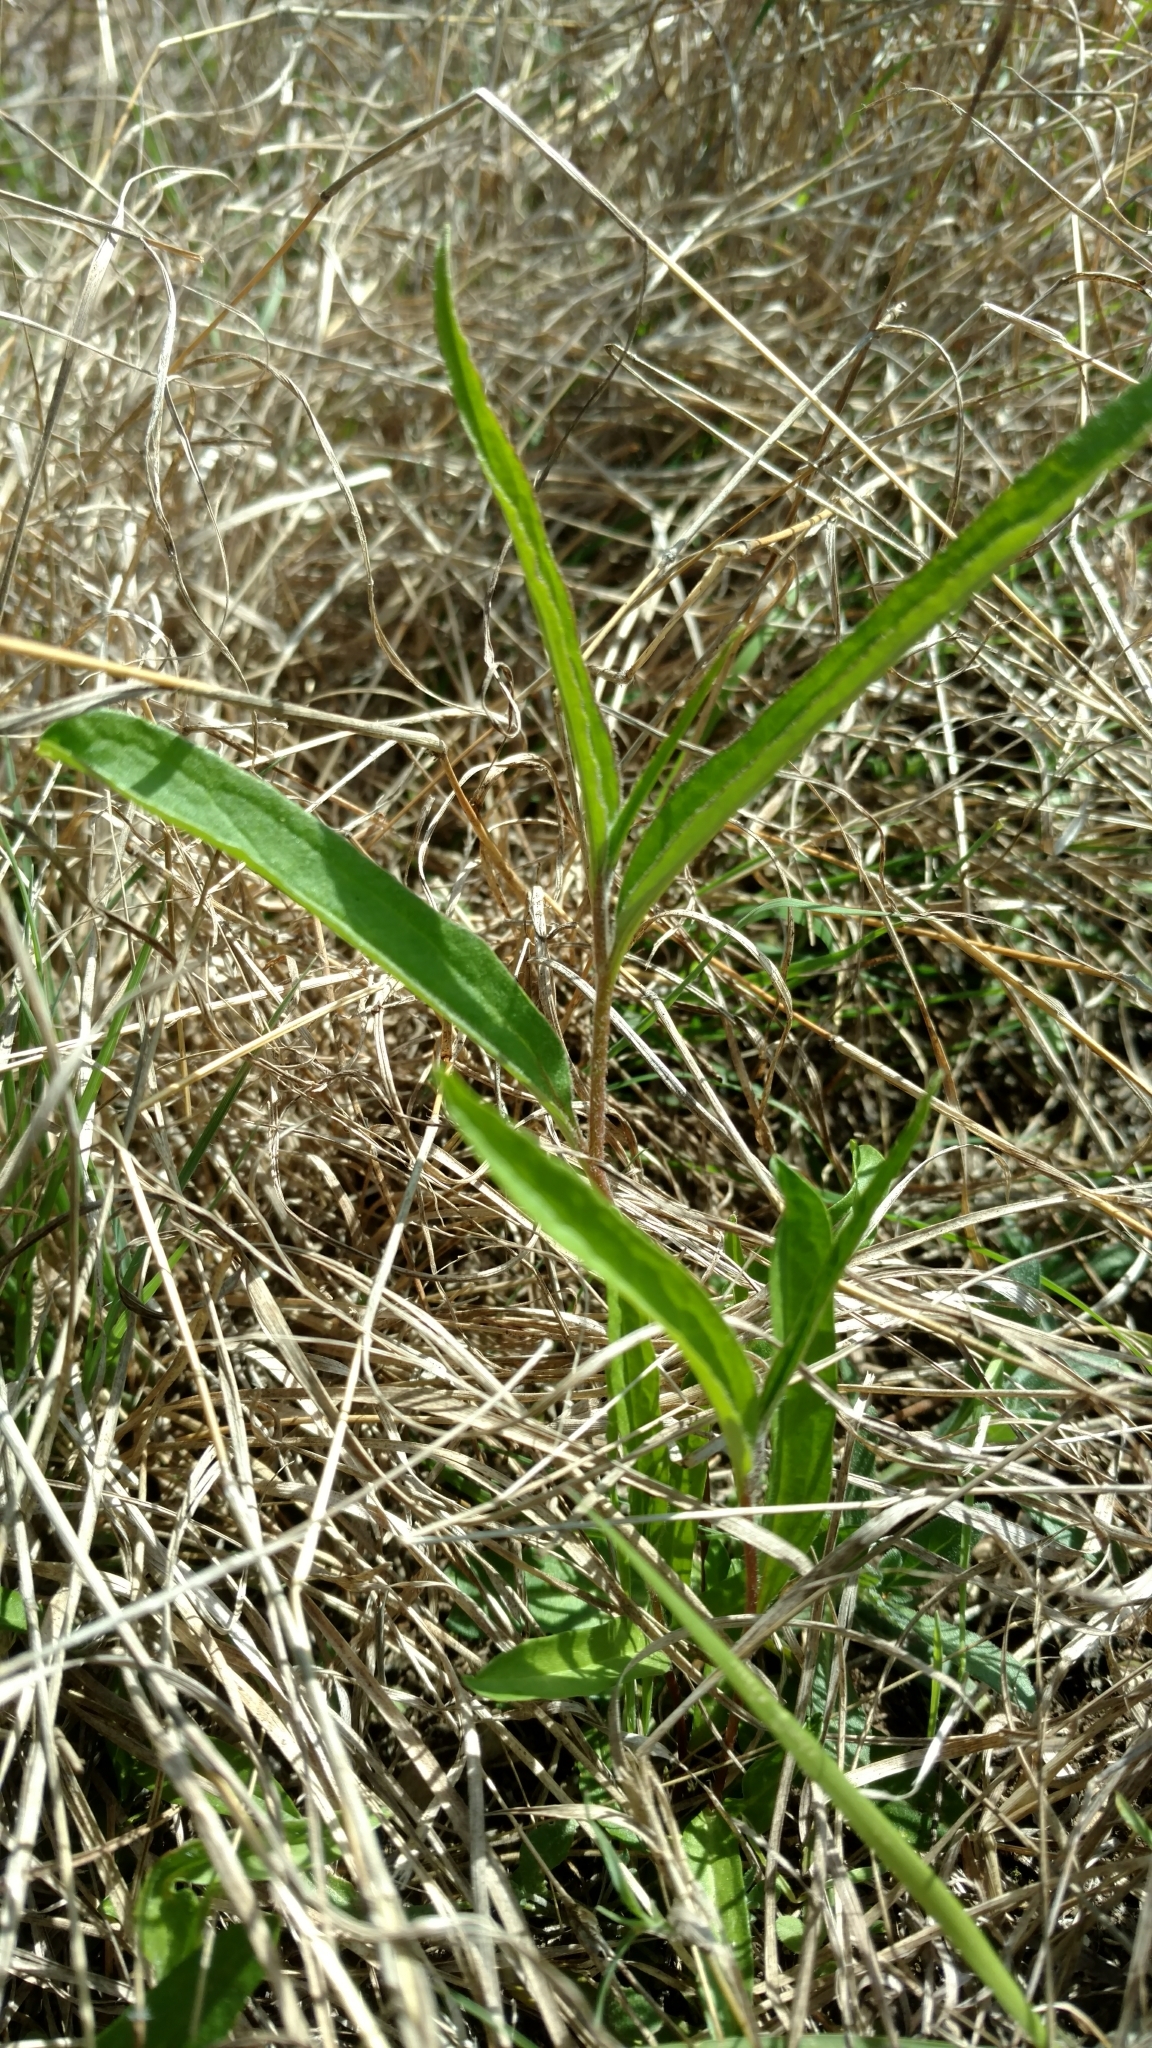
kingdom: Plantae
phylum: Tracheophyta
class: Magnoliopsida
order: Piperales
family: Aristolochiaceae
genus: Aristolochia
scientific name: Aristolochia erecta
